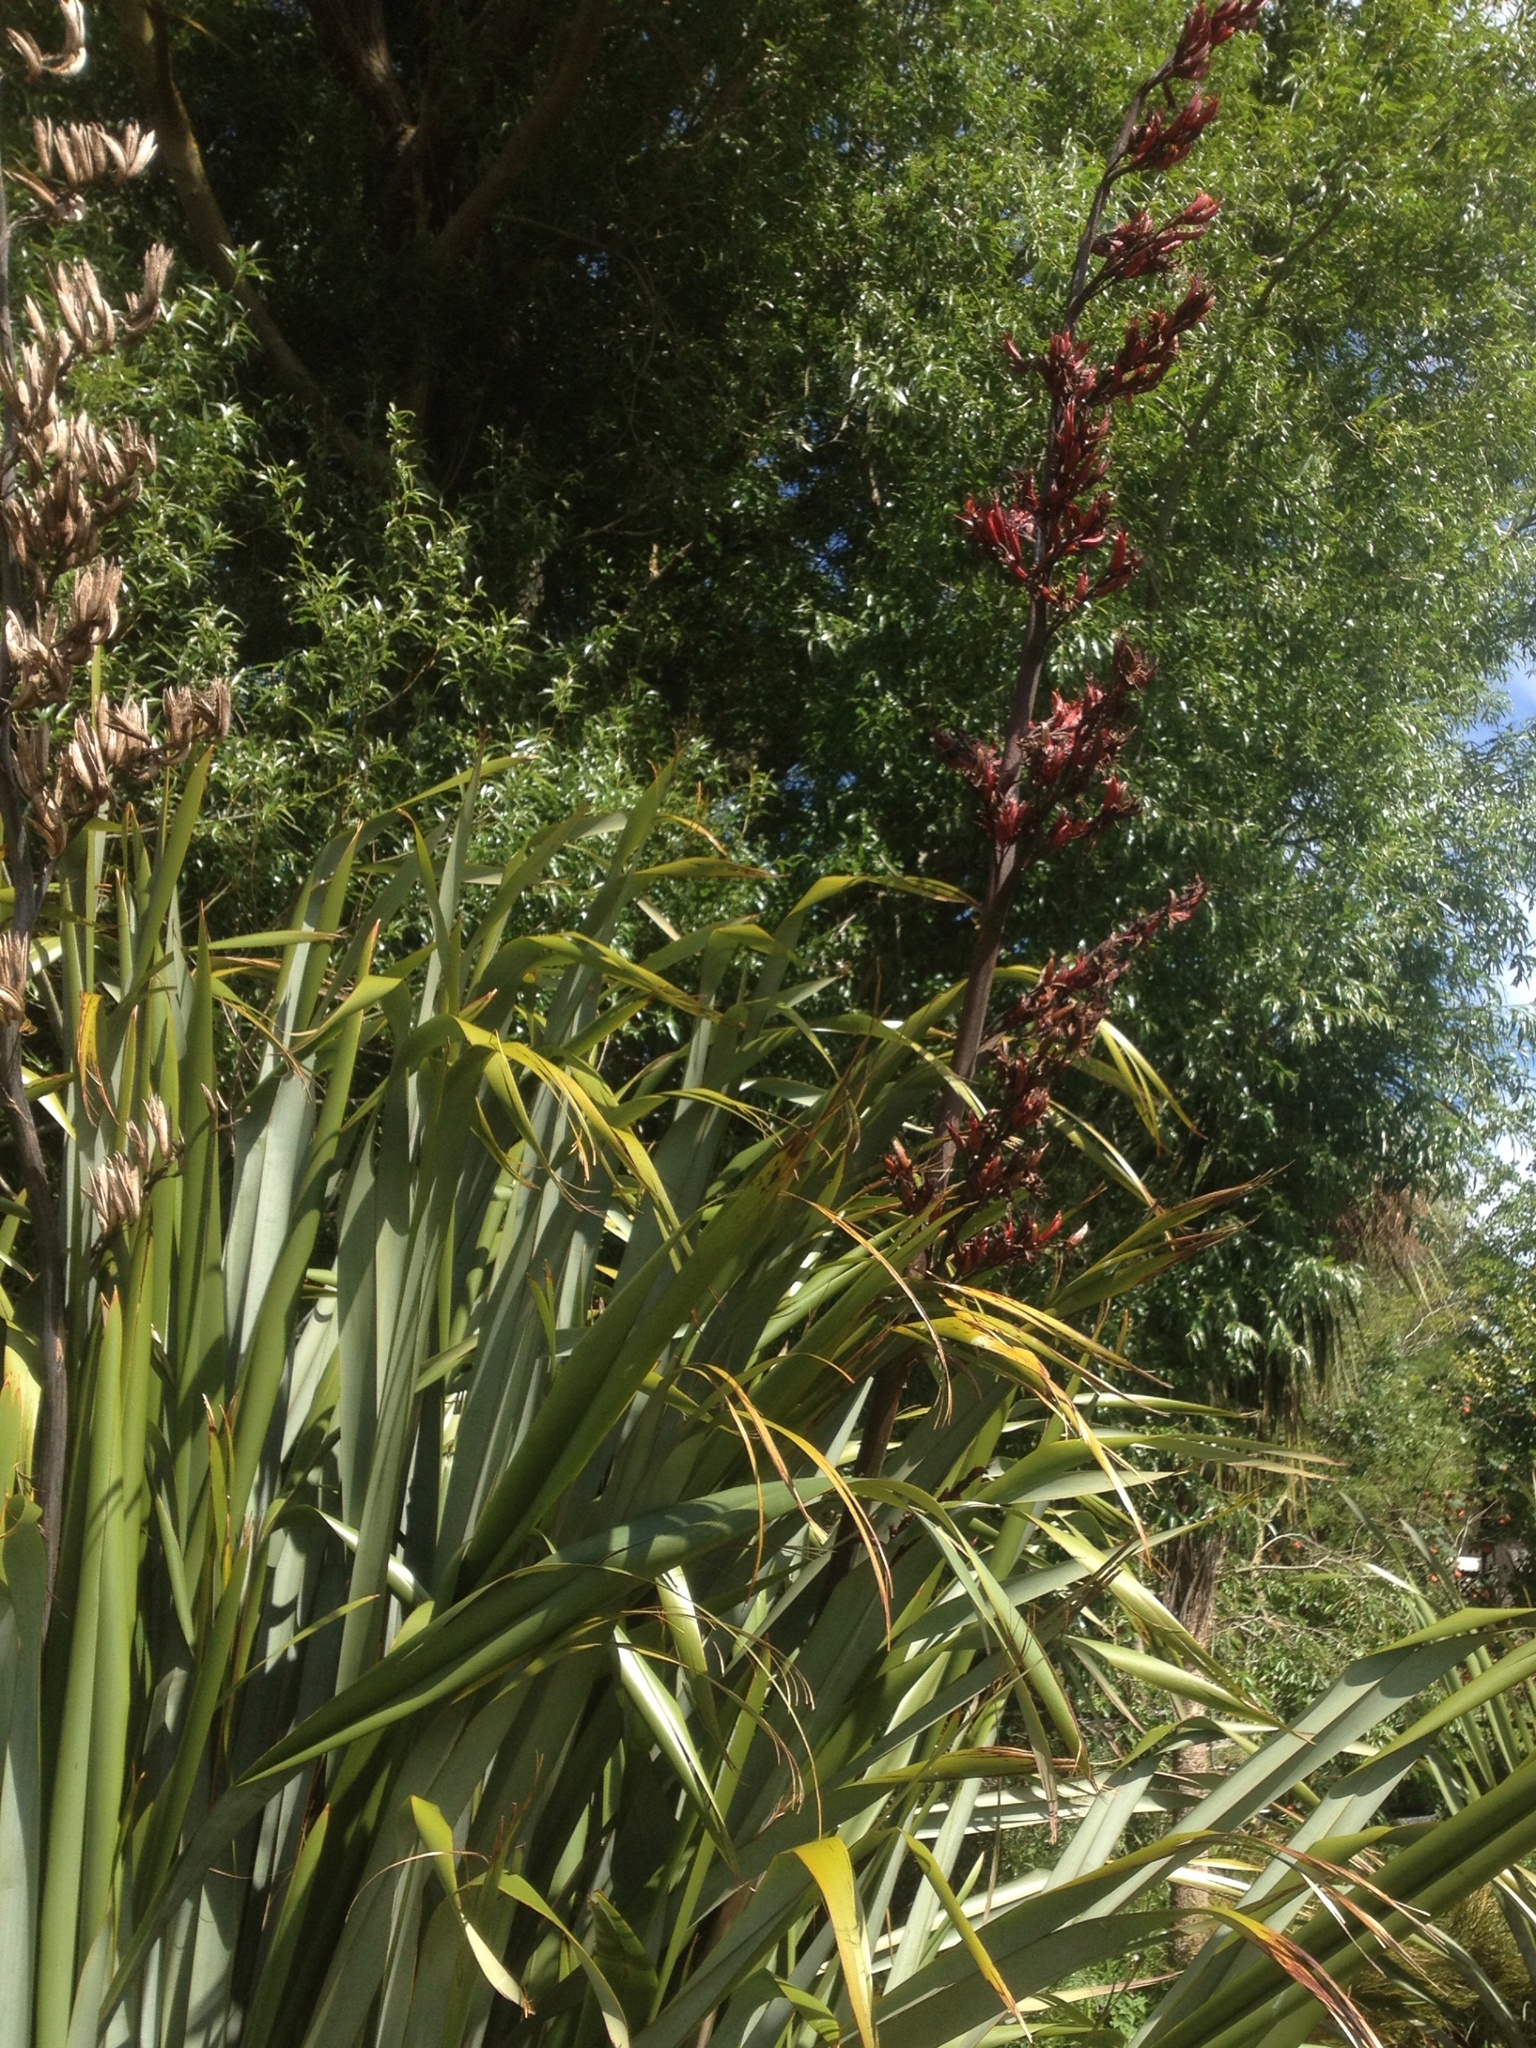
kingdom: Plantae
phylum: Tracheophyta
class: Liliopsida
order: Asparagales
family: Asphodelaceae
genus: Phormium
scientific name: Phormium tenax
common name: New zealand flax
